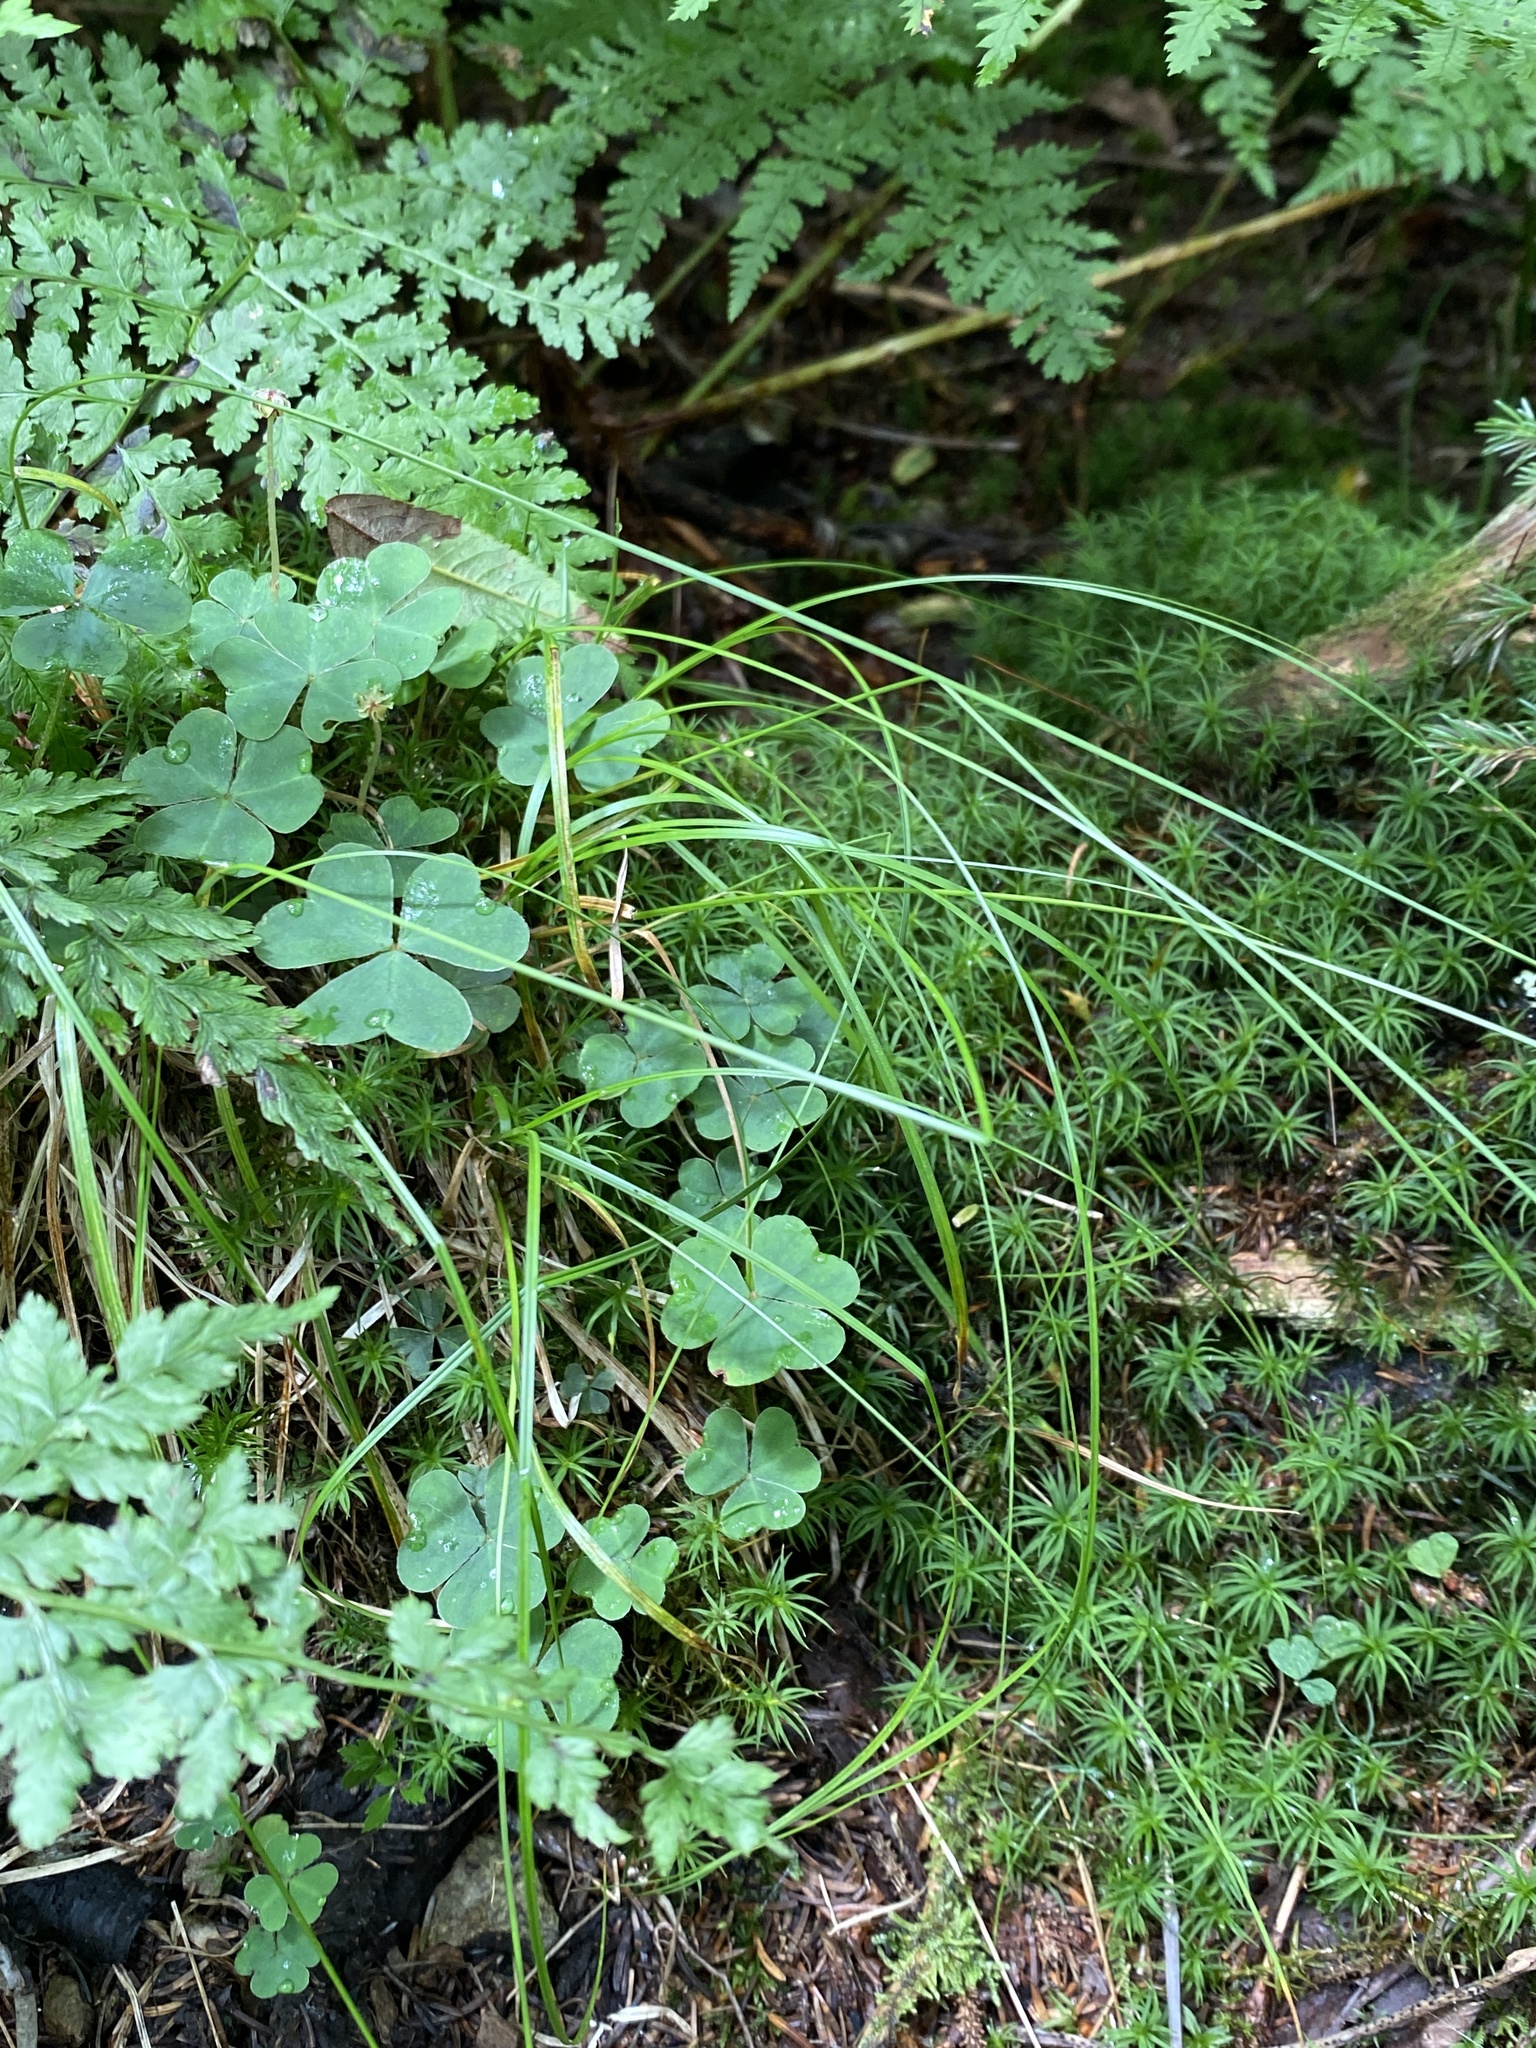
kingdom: Plantae
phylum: Tracheophyta
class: Liliopsida
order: Poales
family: Cyperaceae
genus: Carex
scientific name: Carex brunnescens
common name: Brown sedge
